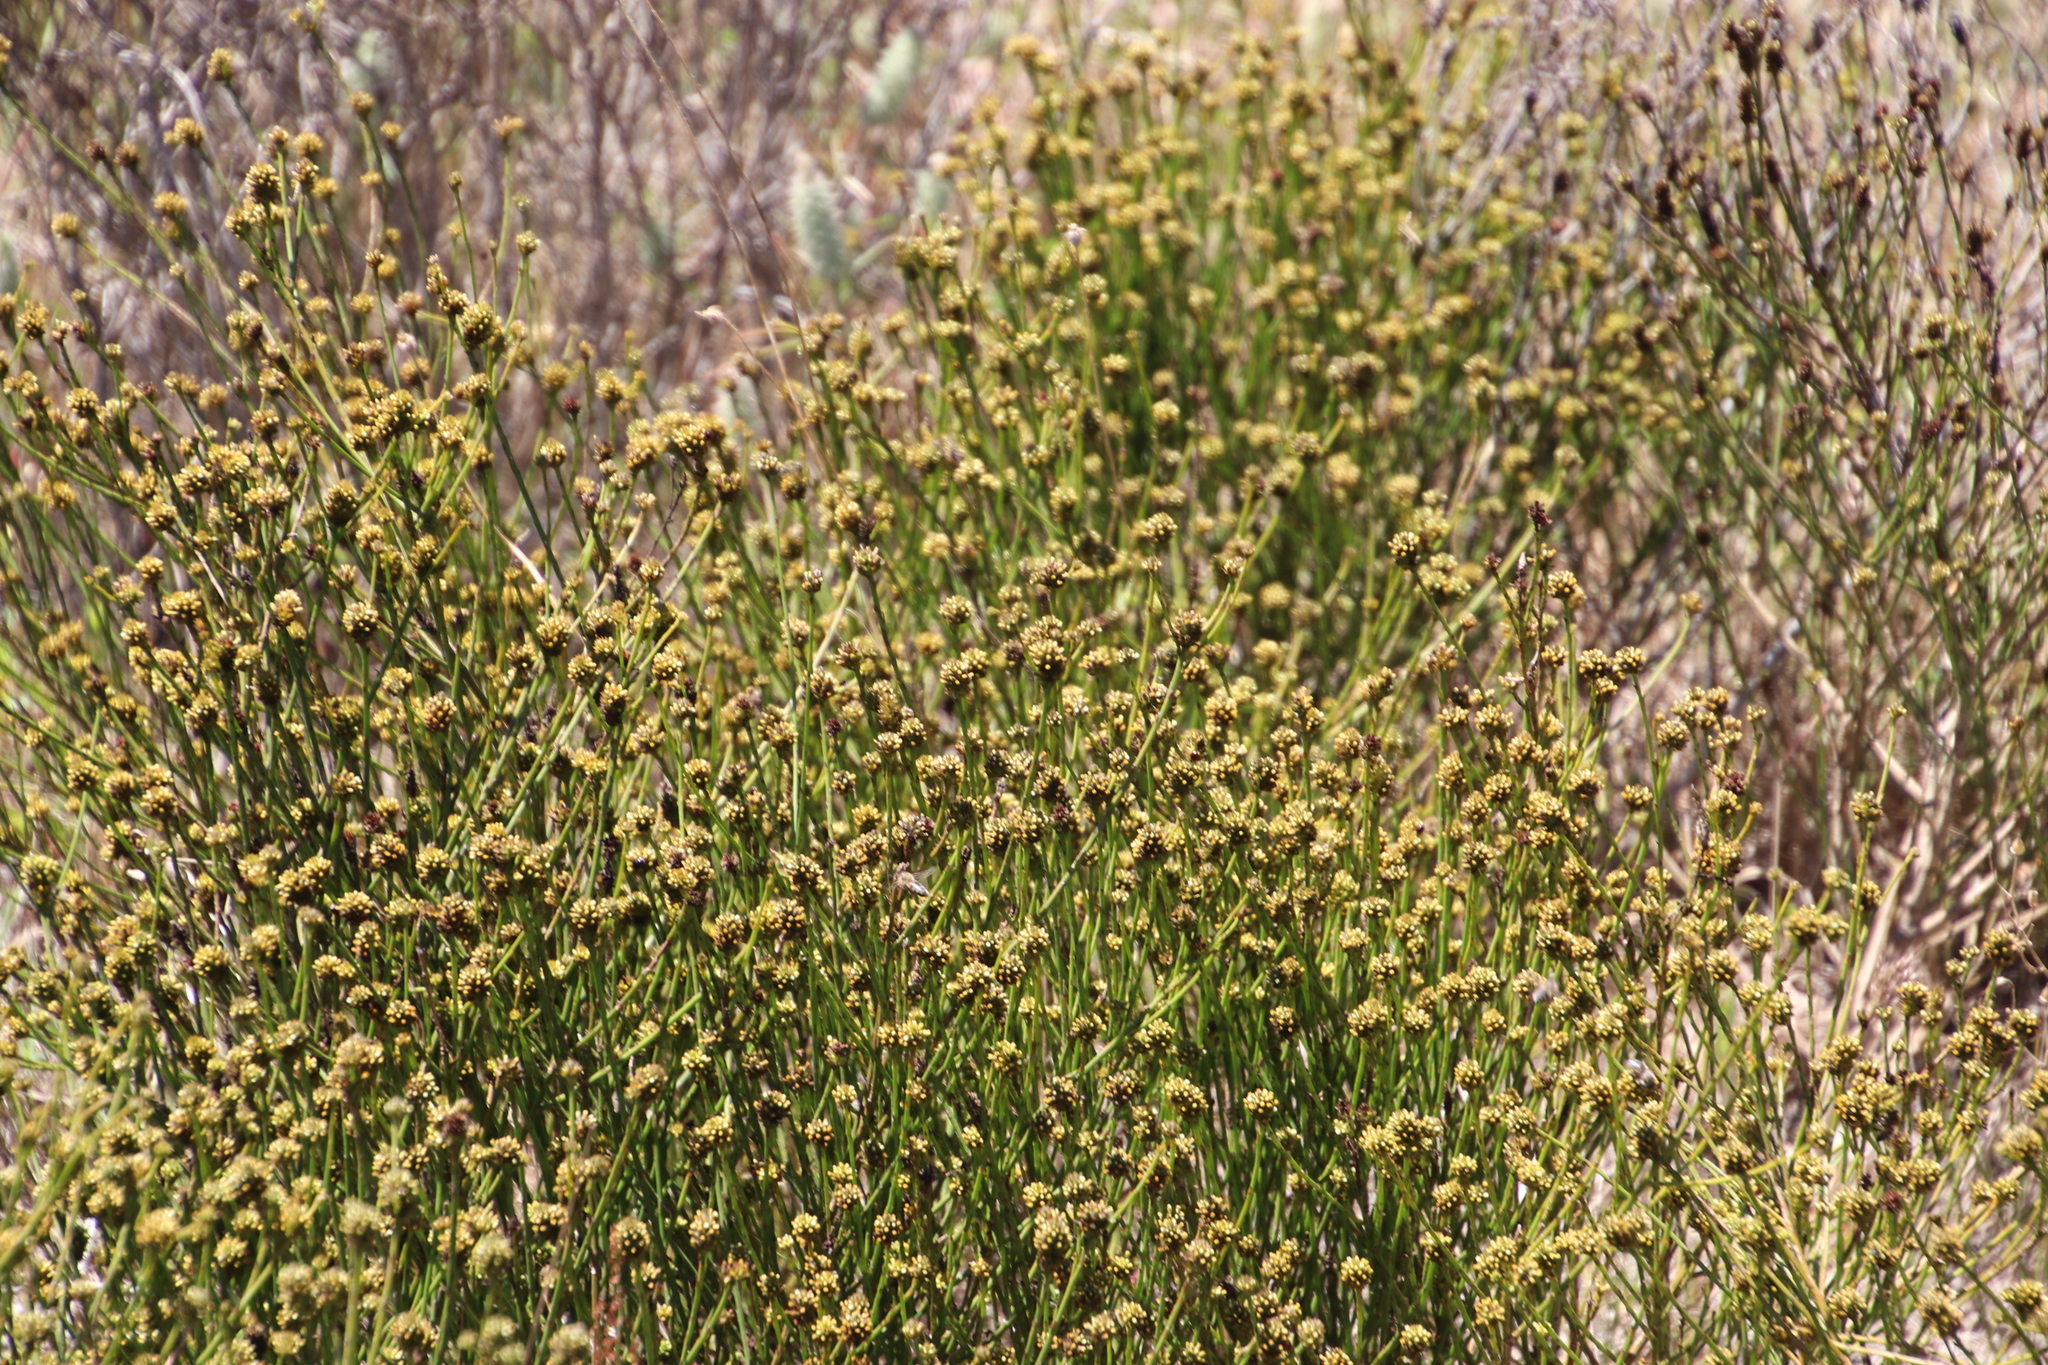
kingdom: Plantae
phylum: Tracheophyta
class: Magnoliopsida
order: Santalales
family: Thesiaceae
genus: Thesium
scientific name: Thesium aggregatum
